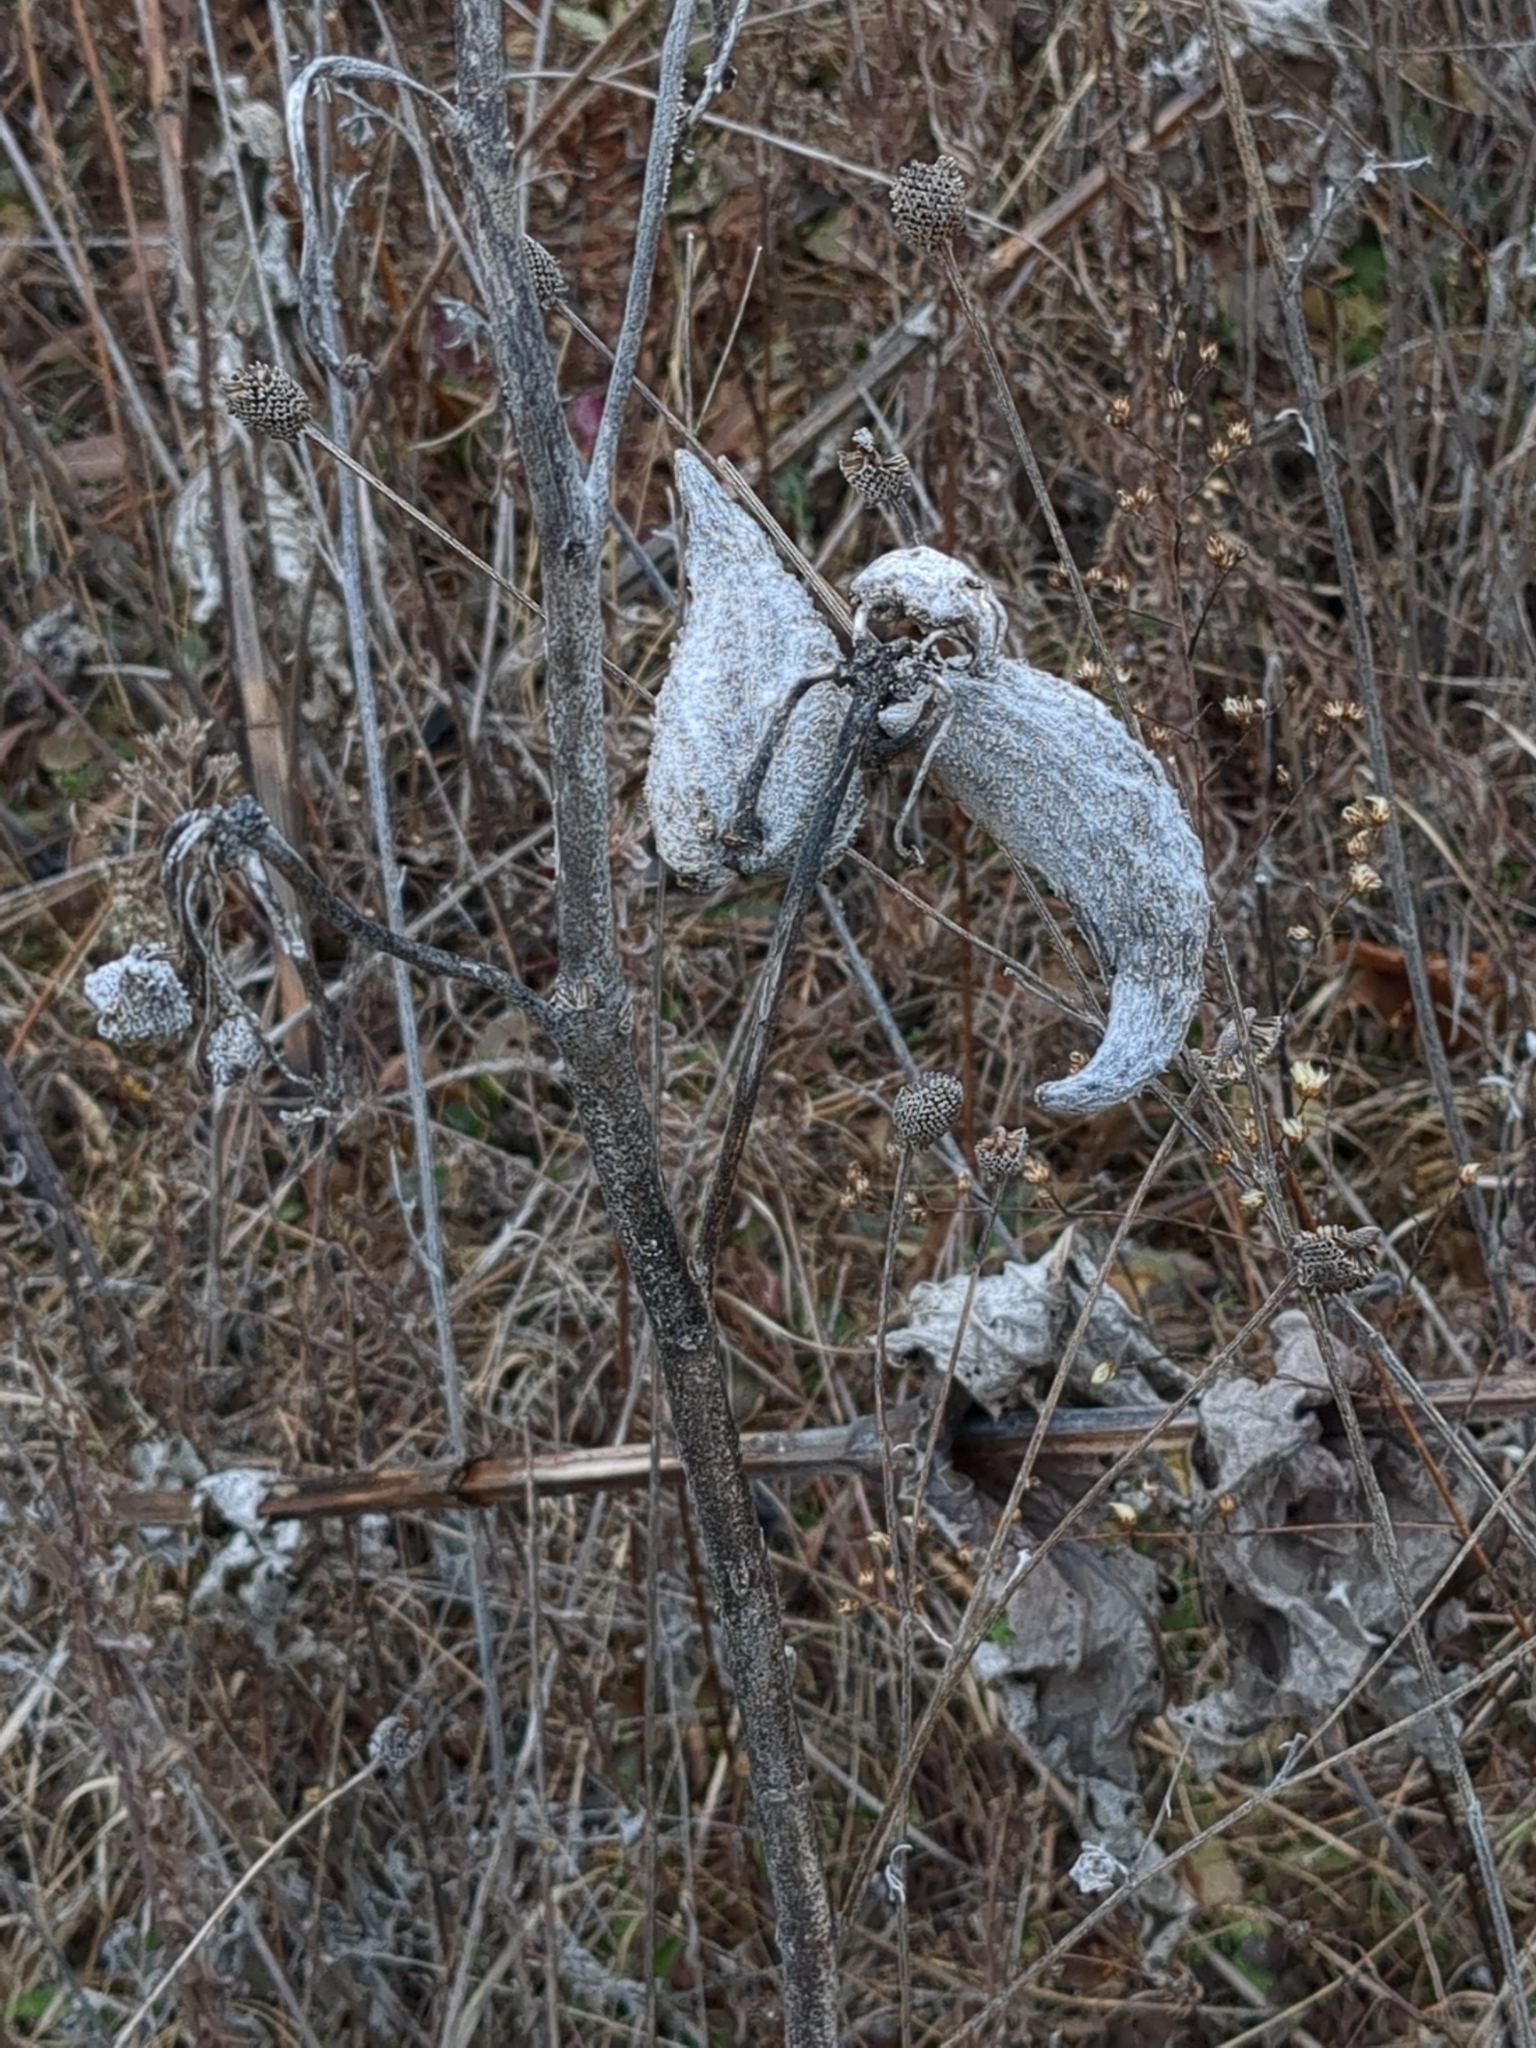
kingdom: Plantae
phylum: Tracheophyta
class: Magnoliopsida
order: Gentianales
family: Apocynaceae
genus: Asclepias
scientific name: Asclepias syriaca
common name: Common milkweed
